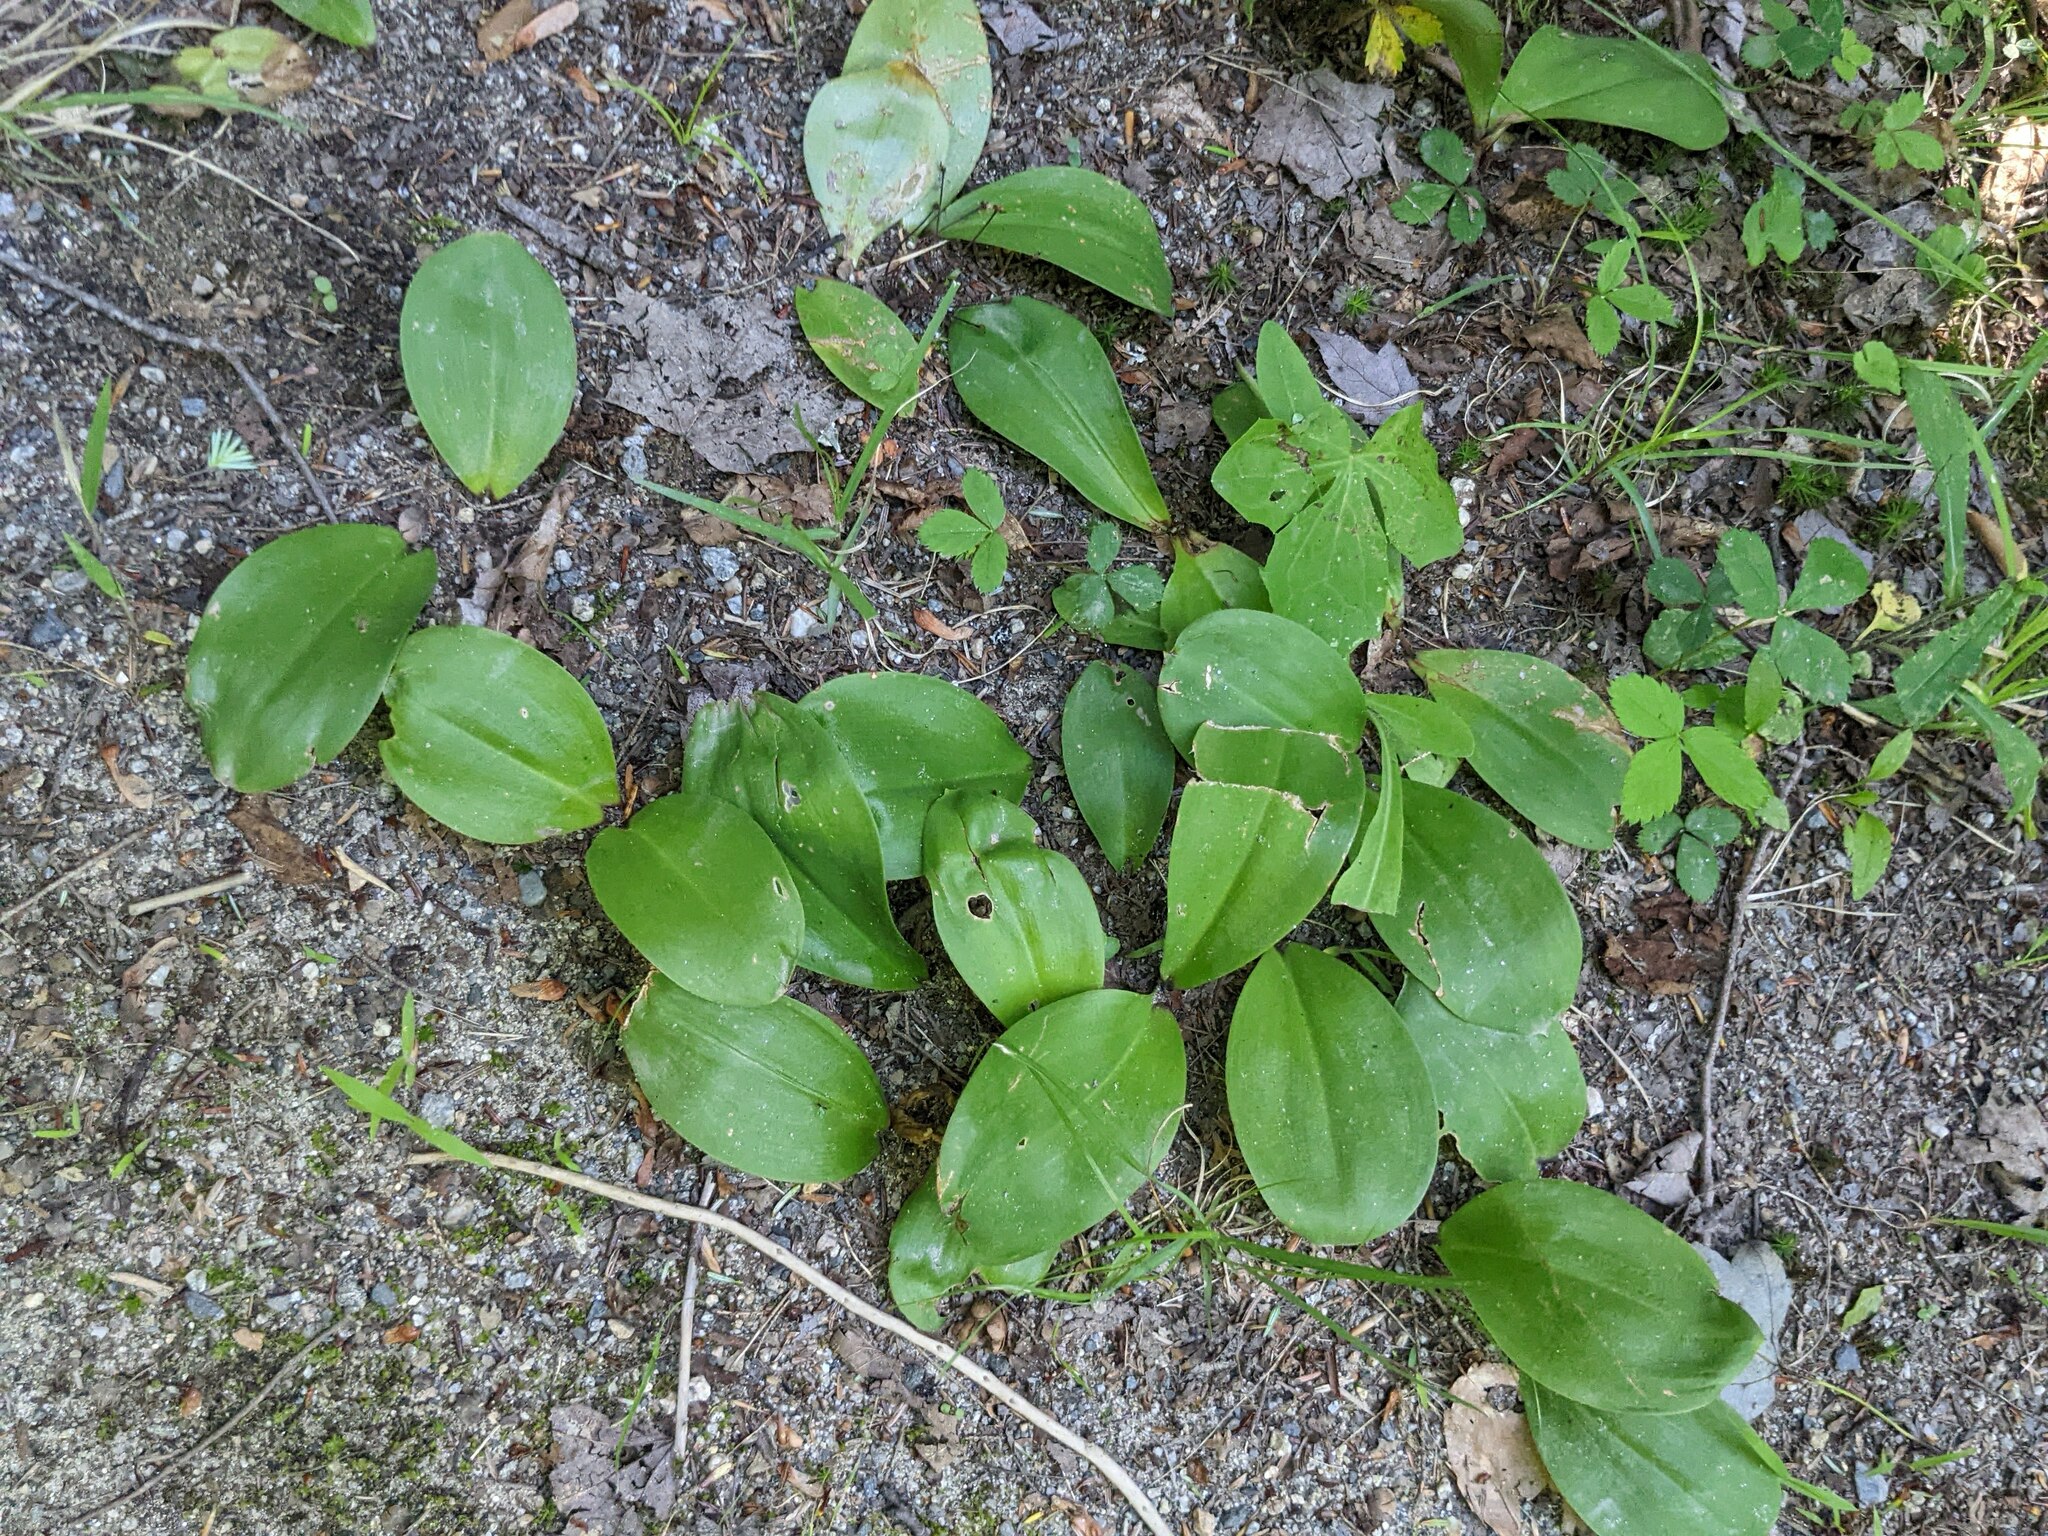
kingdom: Plantae
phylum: Tracheophyta
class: Liliopsida
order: Asparagales
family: Asparagaceae
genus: Maianthemum
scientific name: Maianthemum canadense
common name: False lily-of-the-valley
